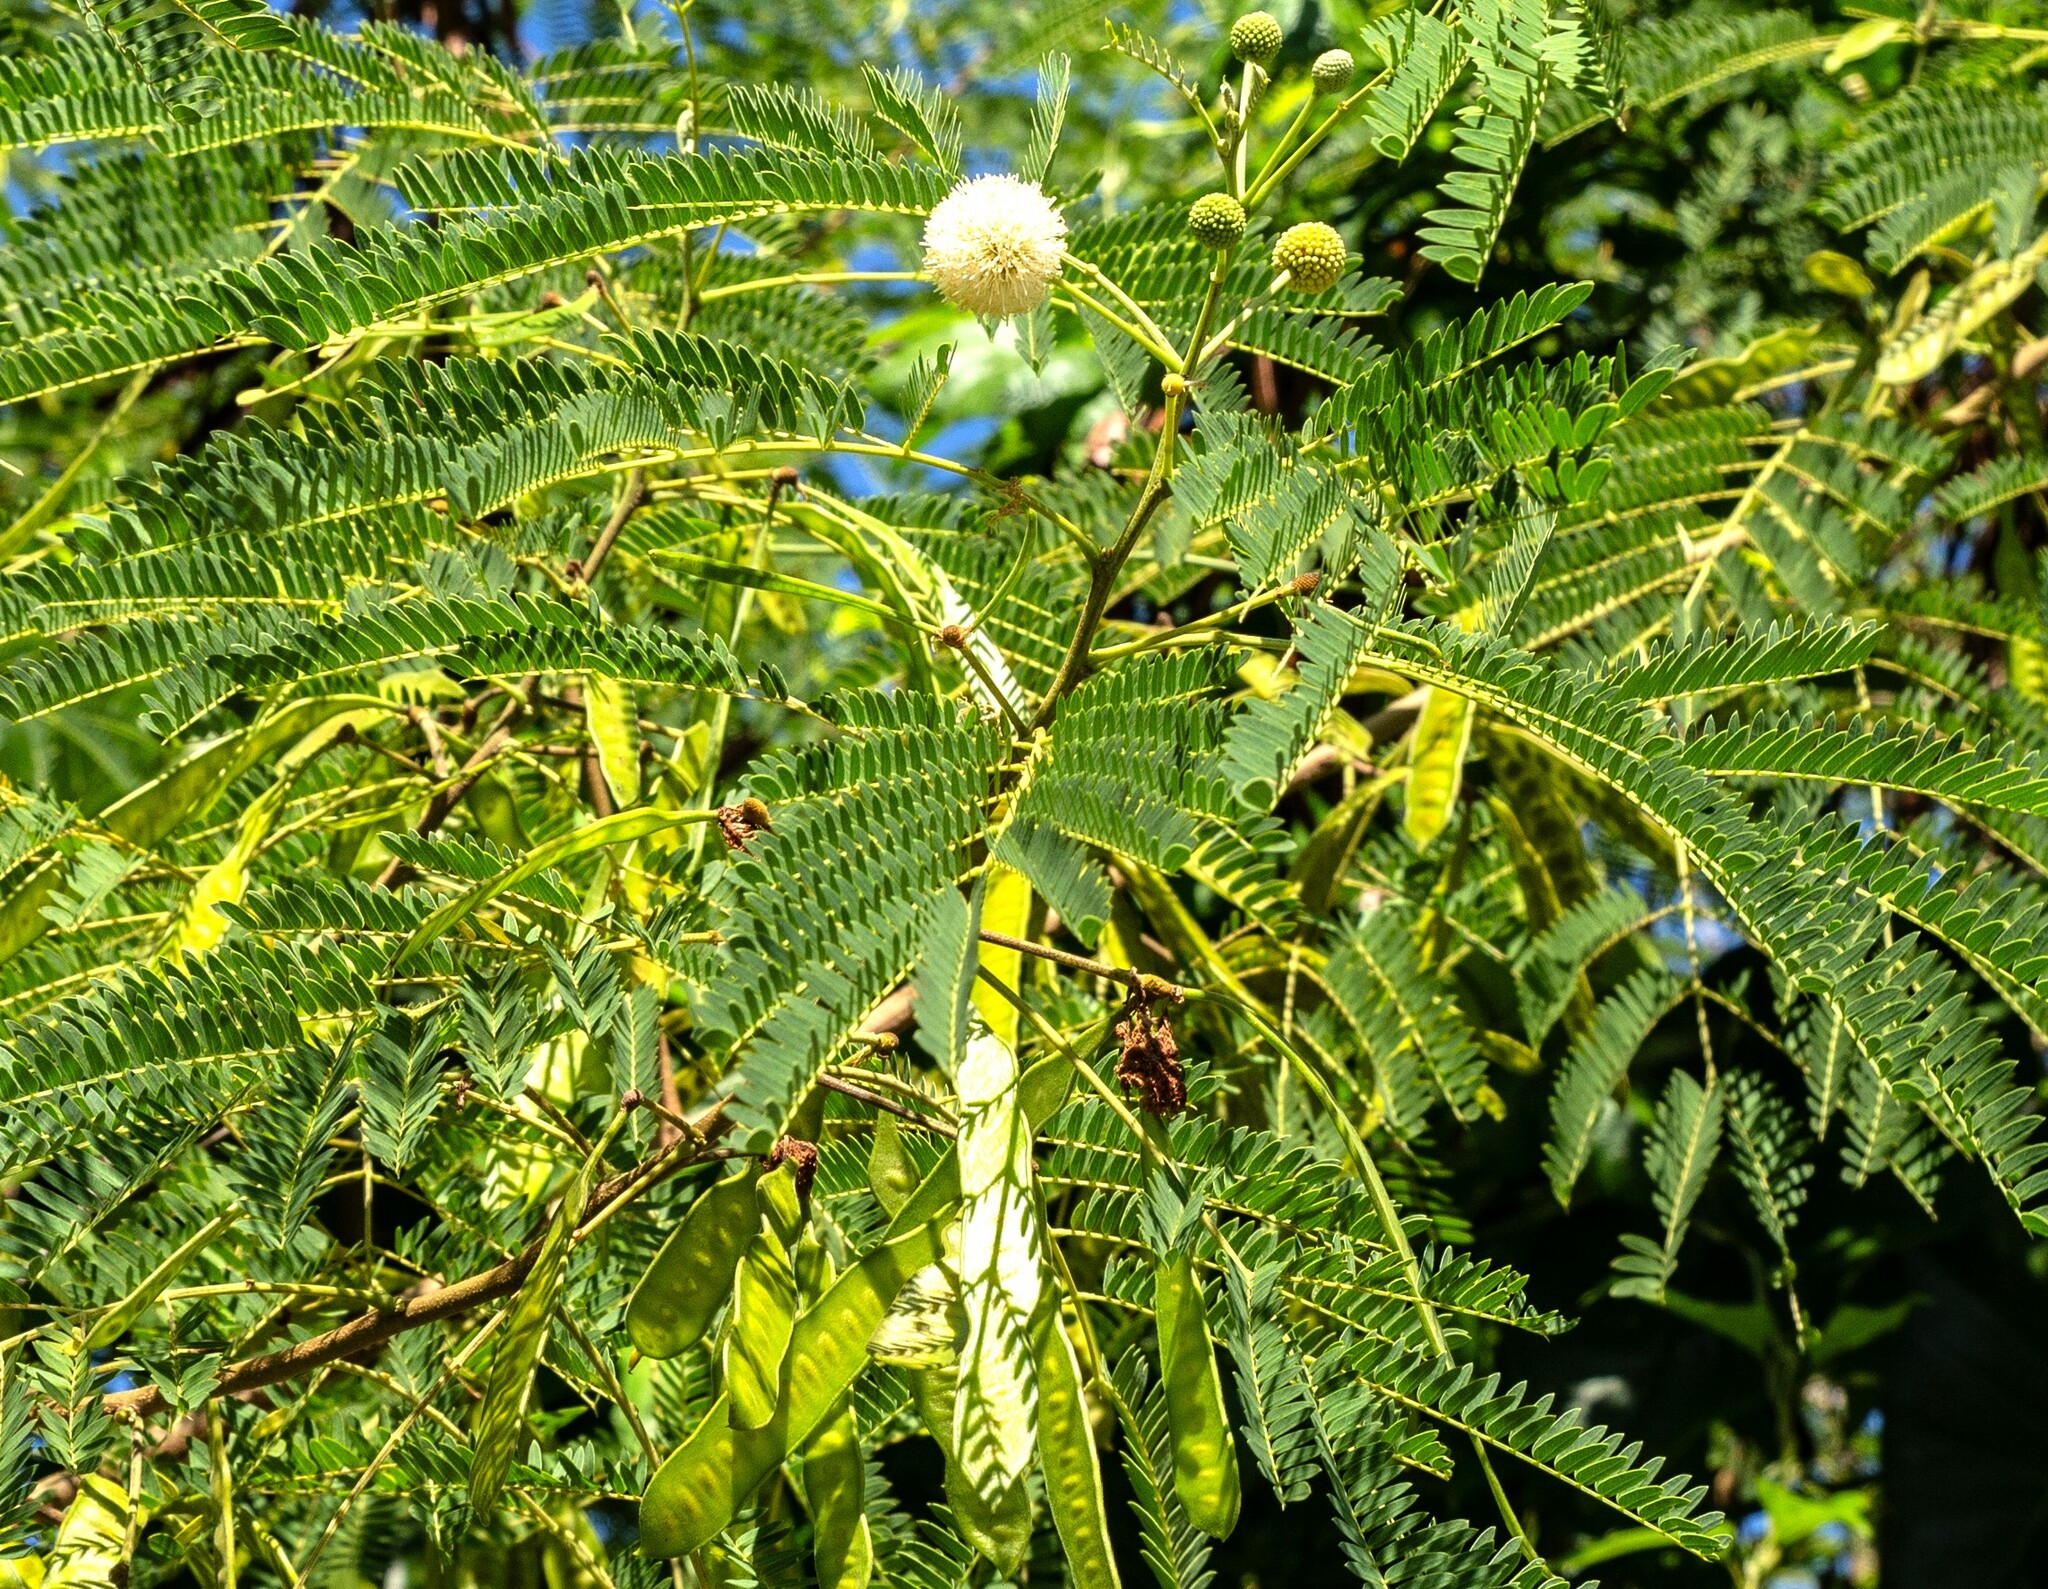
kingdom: Plantae
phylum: Tracheophyta
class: Magnoliopsida
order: Fabales
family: Fabaceae
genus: Leucaena
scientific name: Leucaena leucocephala
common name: White leadtree
